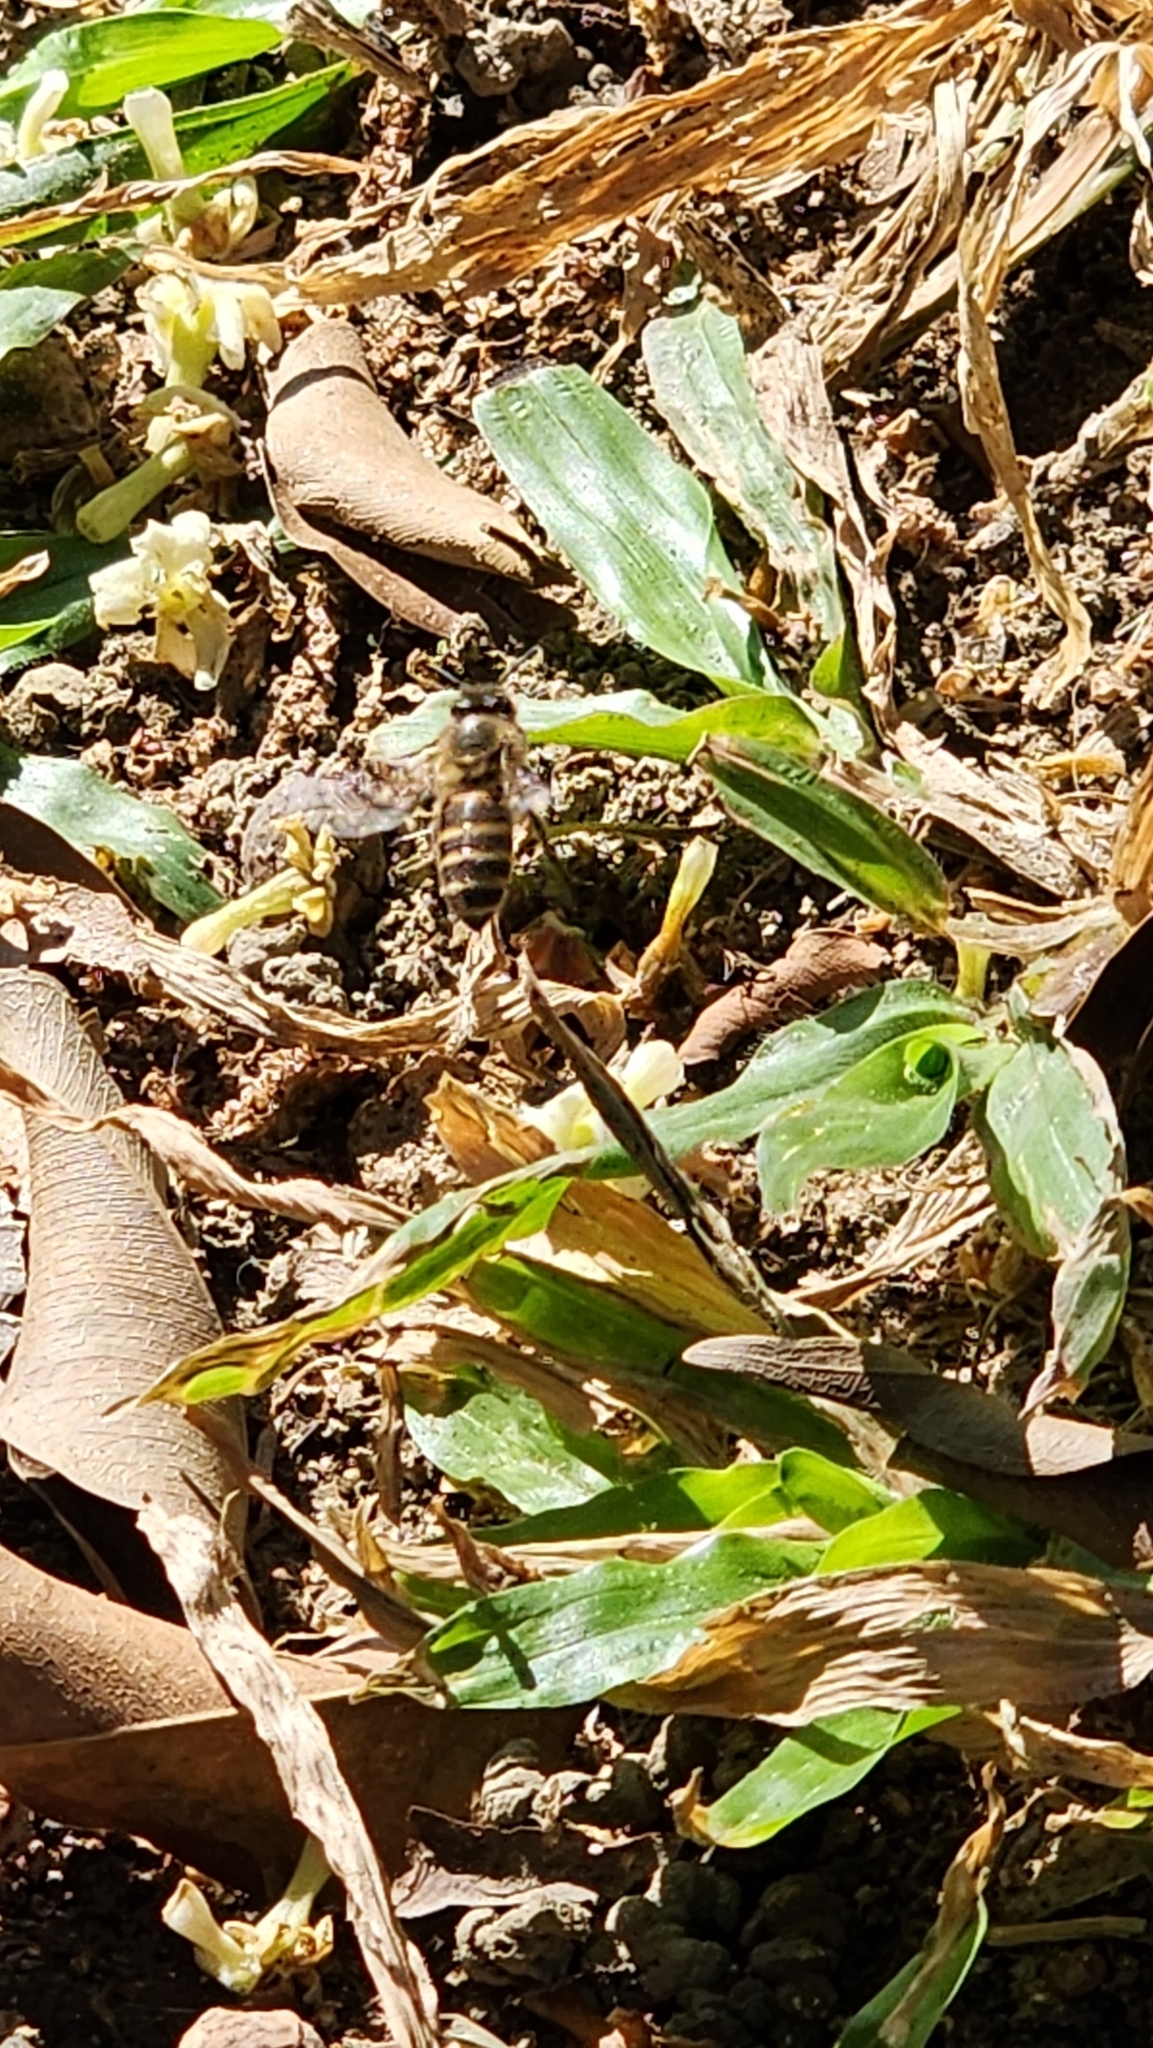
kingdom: Animalia
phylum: Arthropoda
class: Insecta
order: Hymenoptera
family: Apidae
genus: Apis
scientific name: Apis cerana
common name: Honey bee
